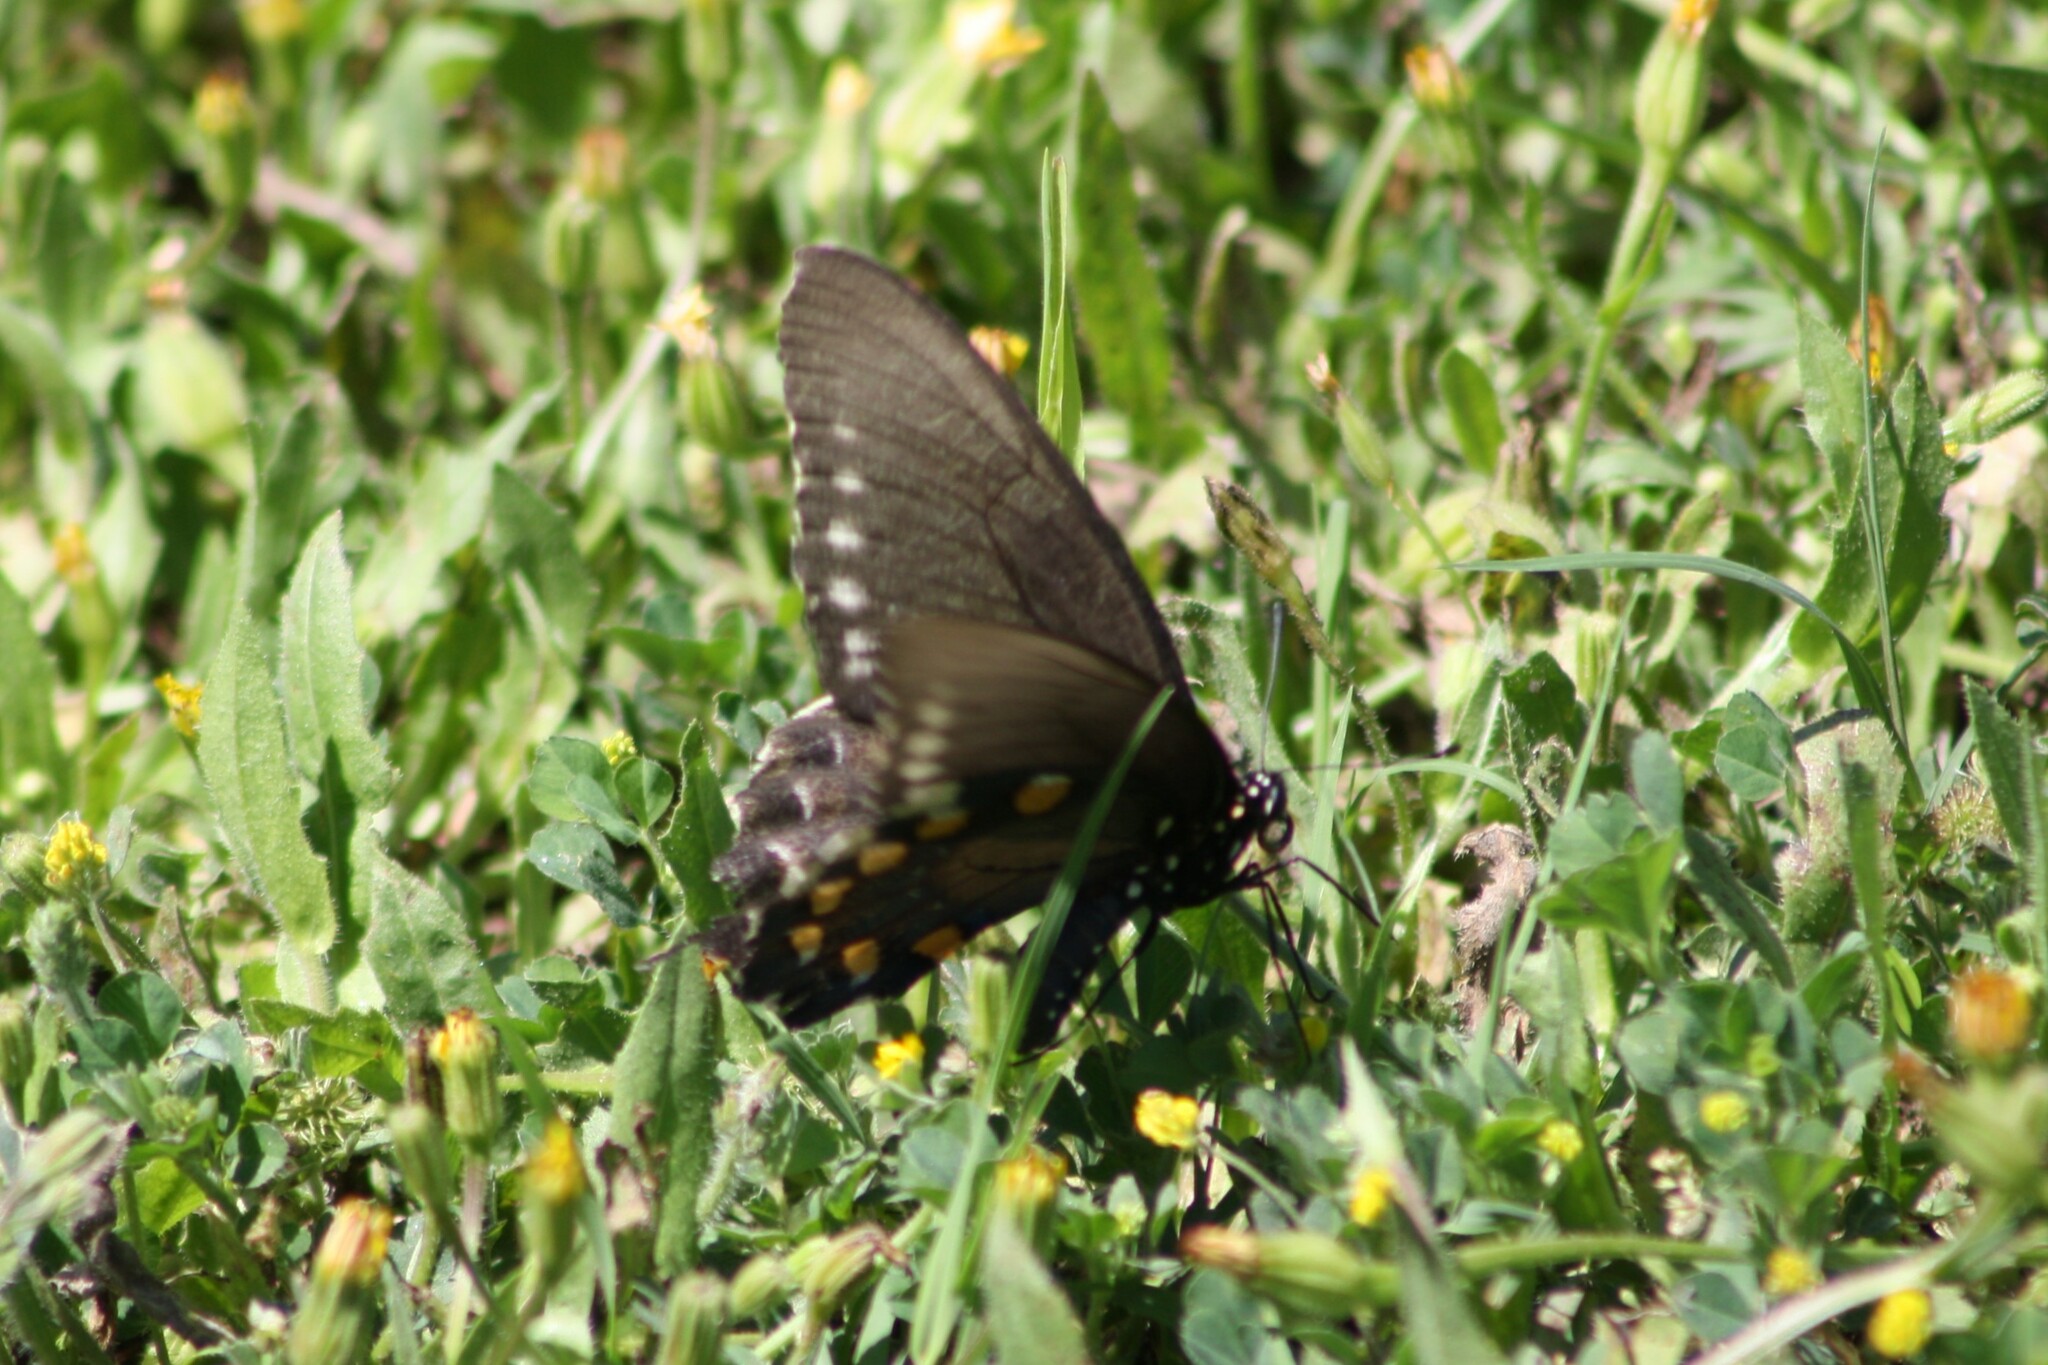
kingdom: Animalia
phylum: Arthropoda
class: Insecta
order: Lepidoptera
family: Papilionidae
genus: Battus
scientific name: Battus philenor
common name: Pipevine swallowtail
